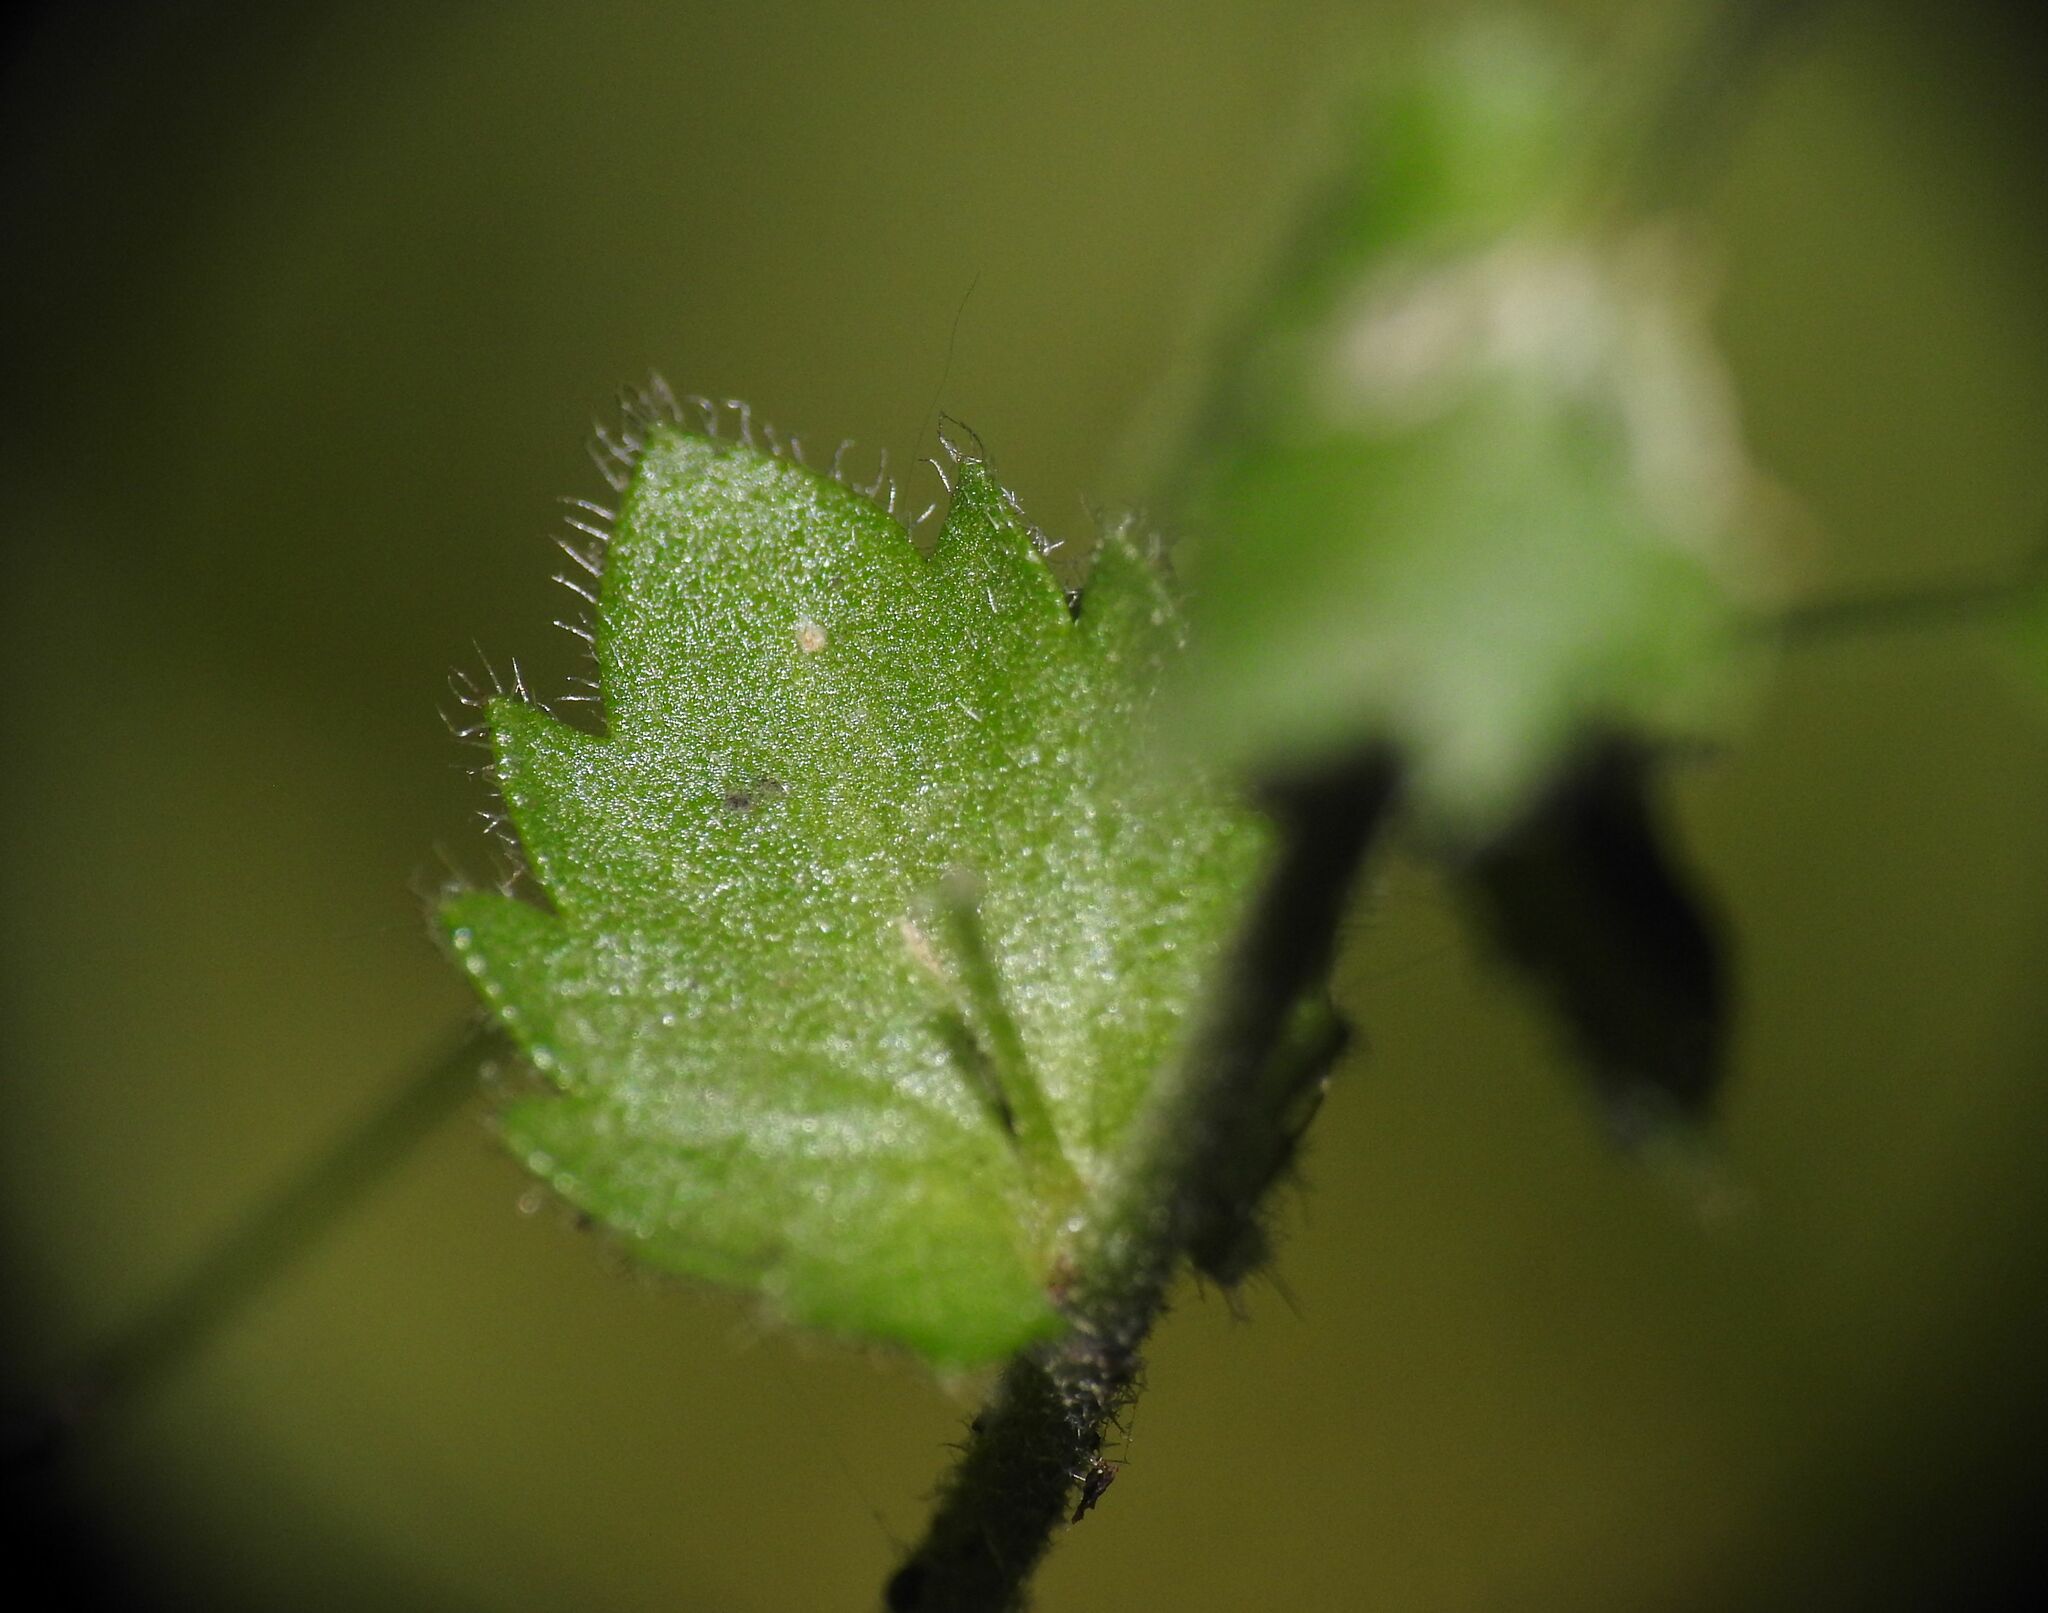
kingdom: Plantae
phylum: Tracheophyta
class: Magnoliopsida
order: Brassicales
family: Brassicaceae
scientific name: Brassicaceae
